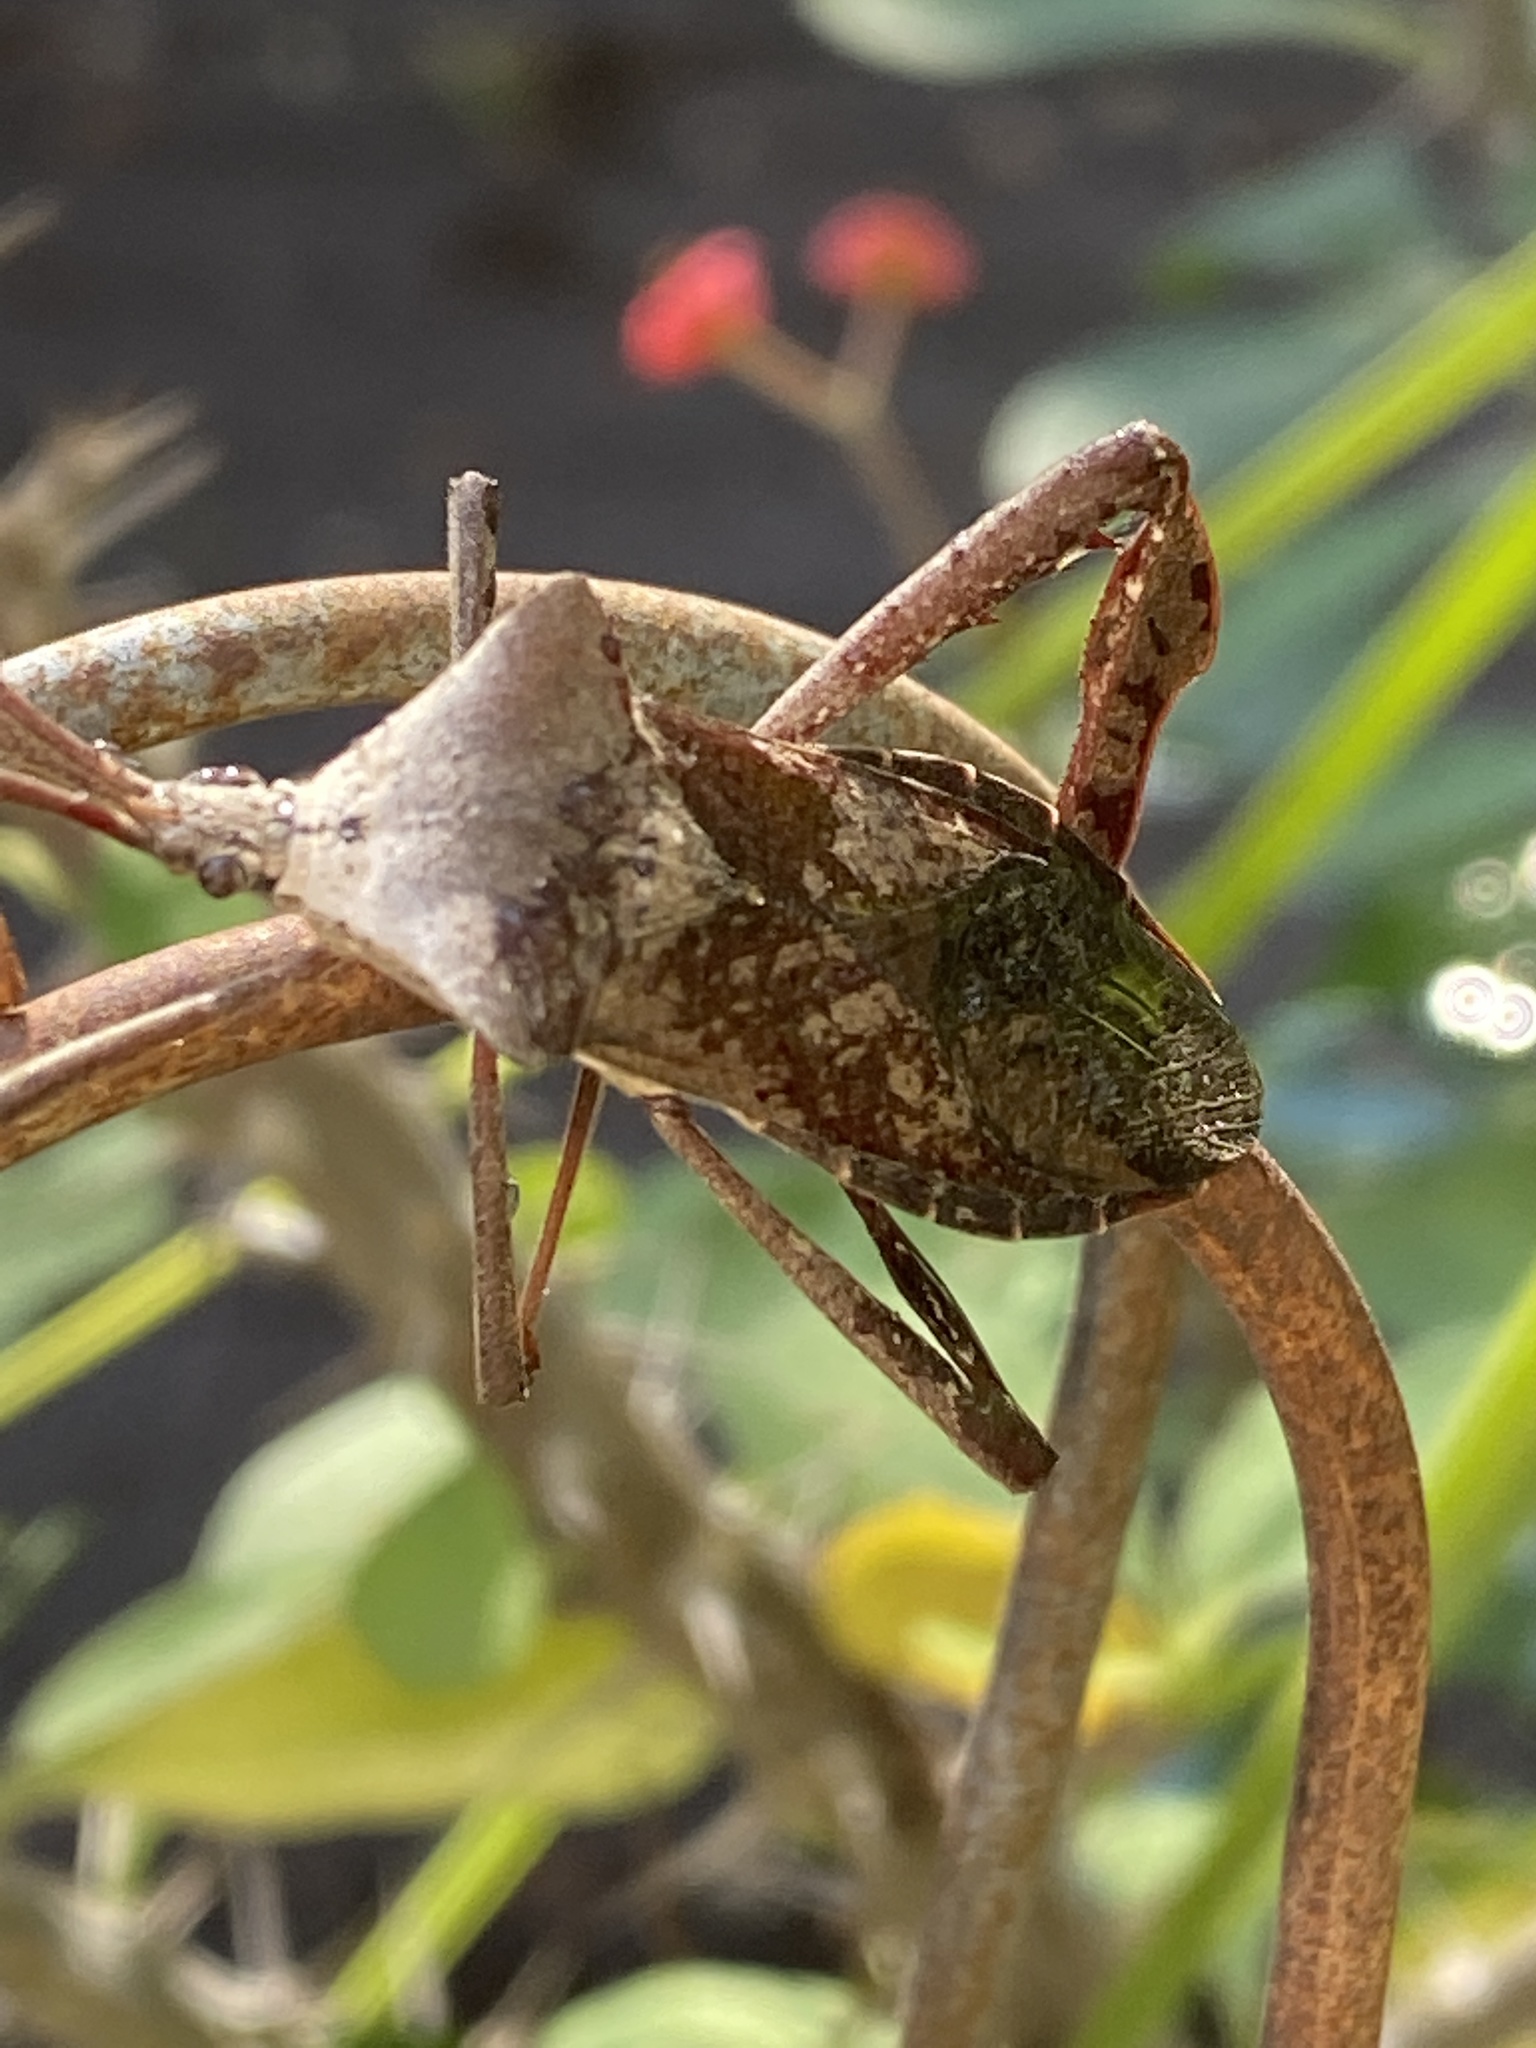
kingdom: Animalia
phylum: Arthropoda
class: Insecta
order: Hemiptera
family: Coreidae
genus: Acanthocephala
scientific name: Acanthocephala declivis
